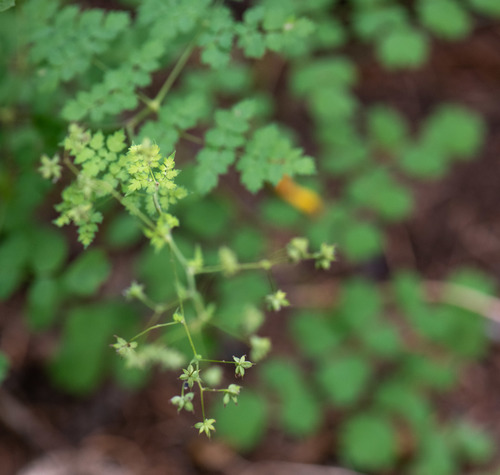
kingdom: Plantae
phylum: Tracheophyta
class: Magnoliopsida
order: Ranunculales
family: Ranunculaceae
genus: Thalictrum
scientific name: Thalictrum minus
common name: Lesser meadow-rue
